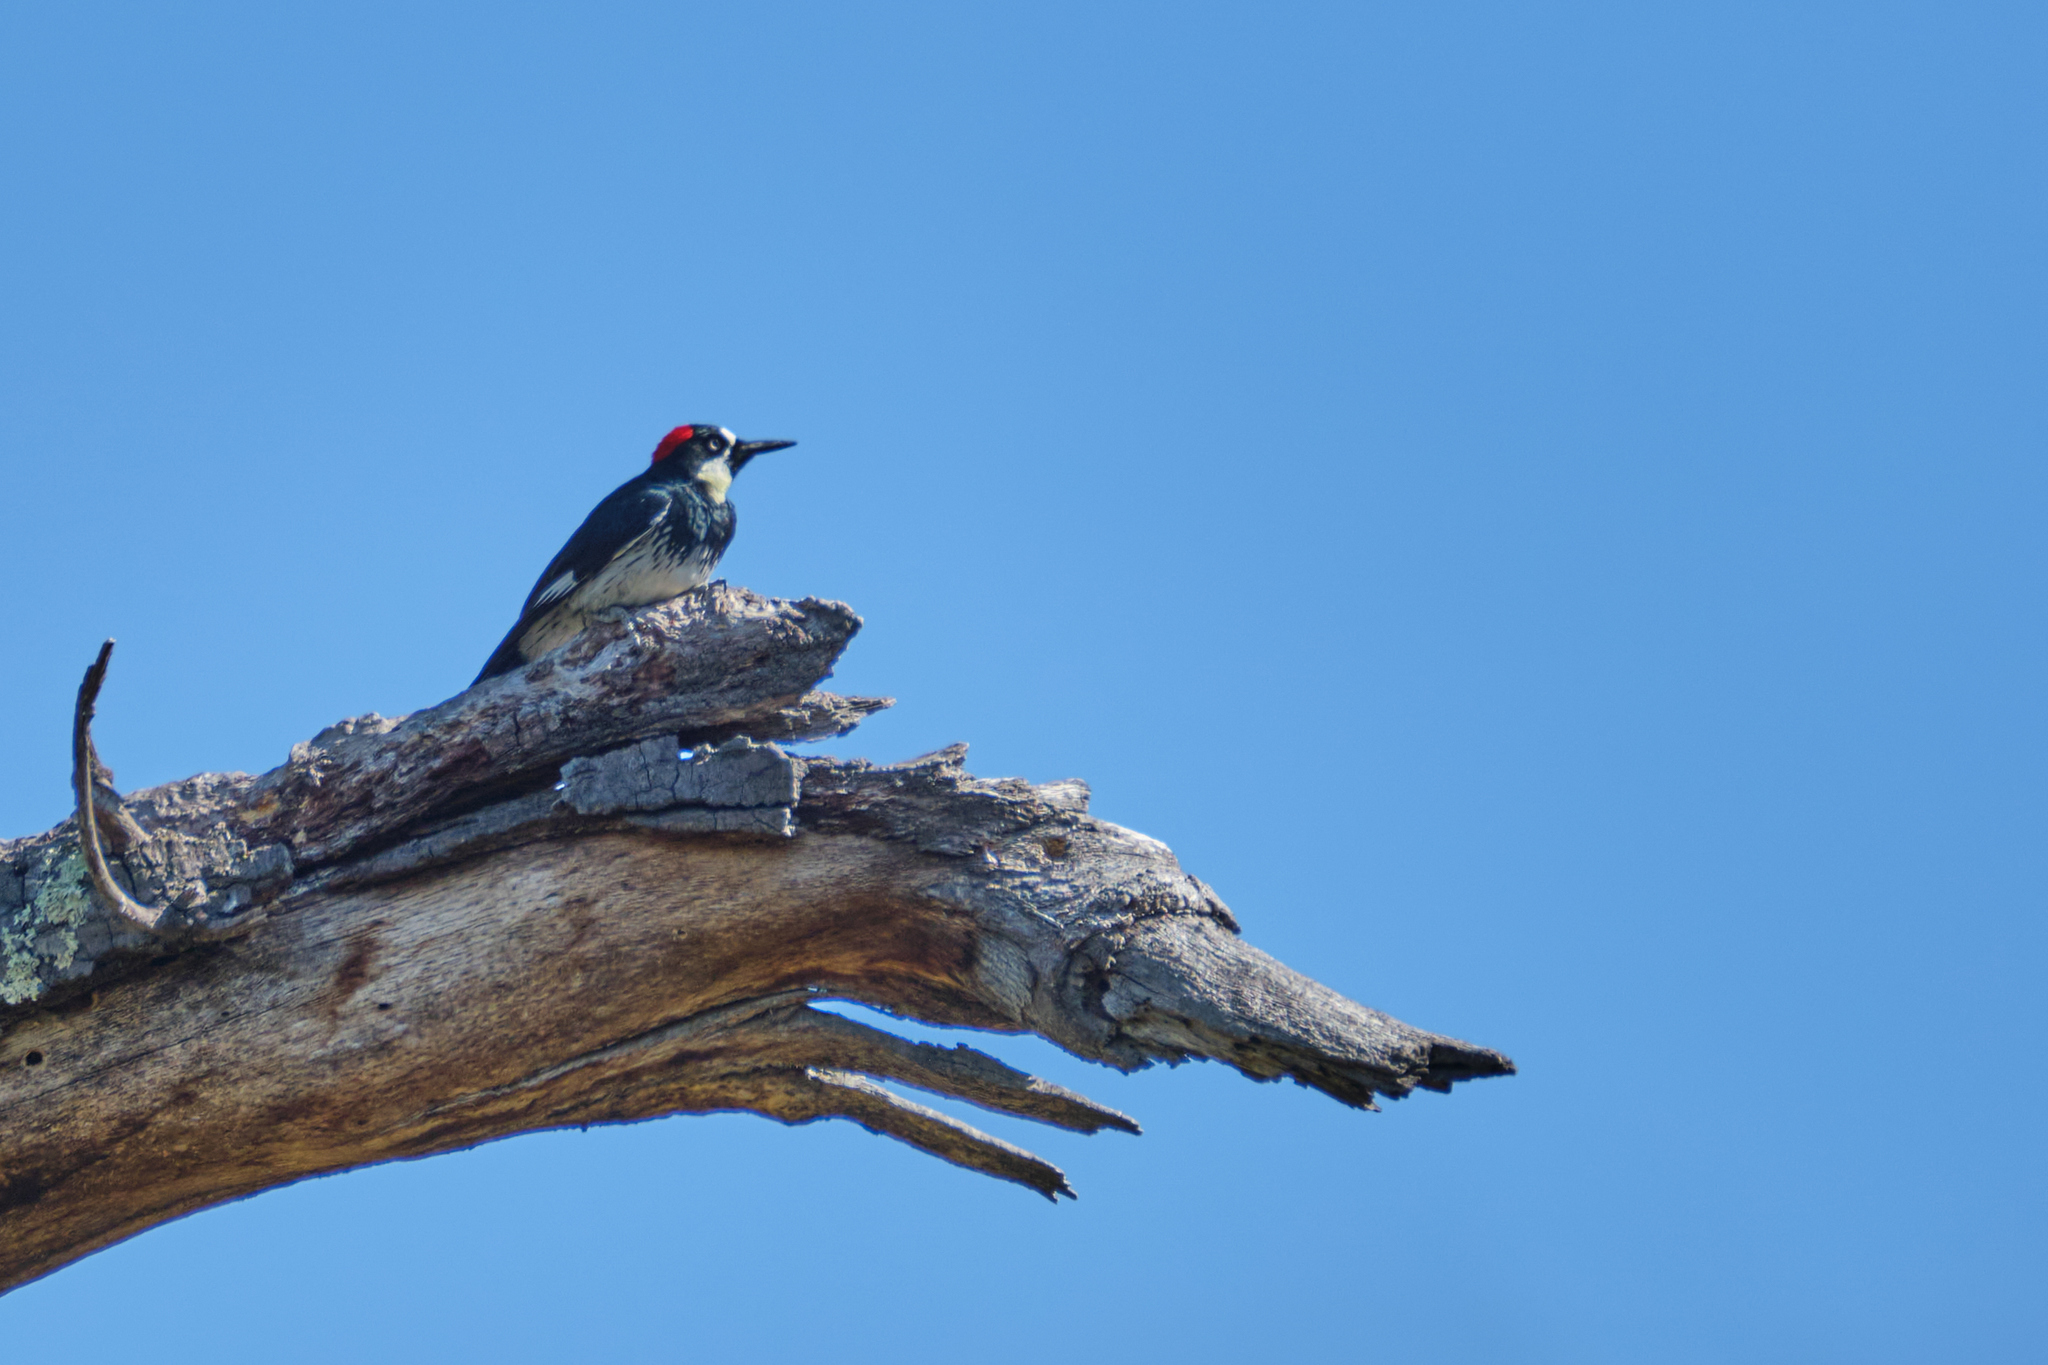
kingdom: Animalia
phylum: Chordata
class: Aves
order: Piciformes
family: Picidae
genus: Melanerpes
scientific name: Melanerpes formicivorus
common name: Acorn woodpecker
